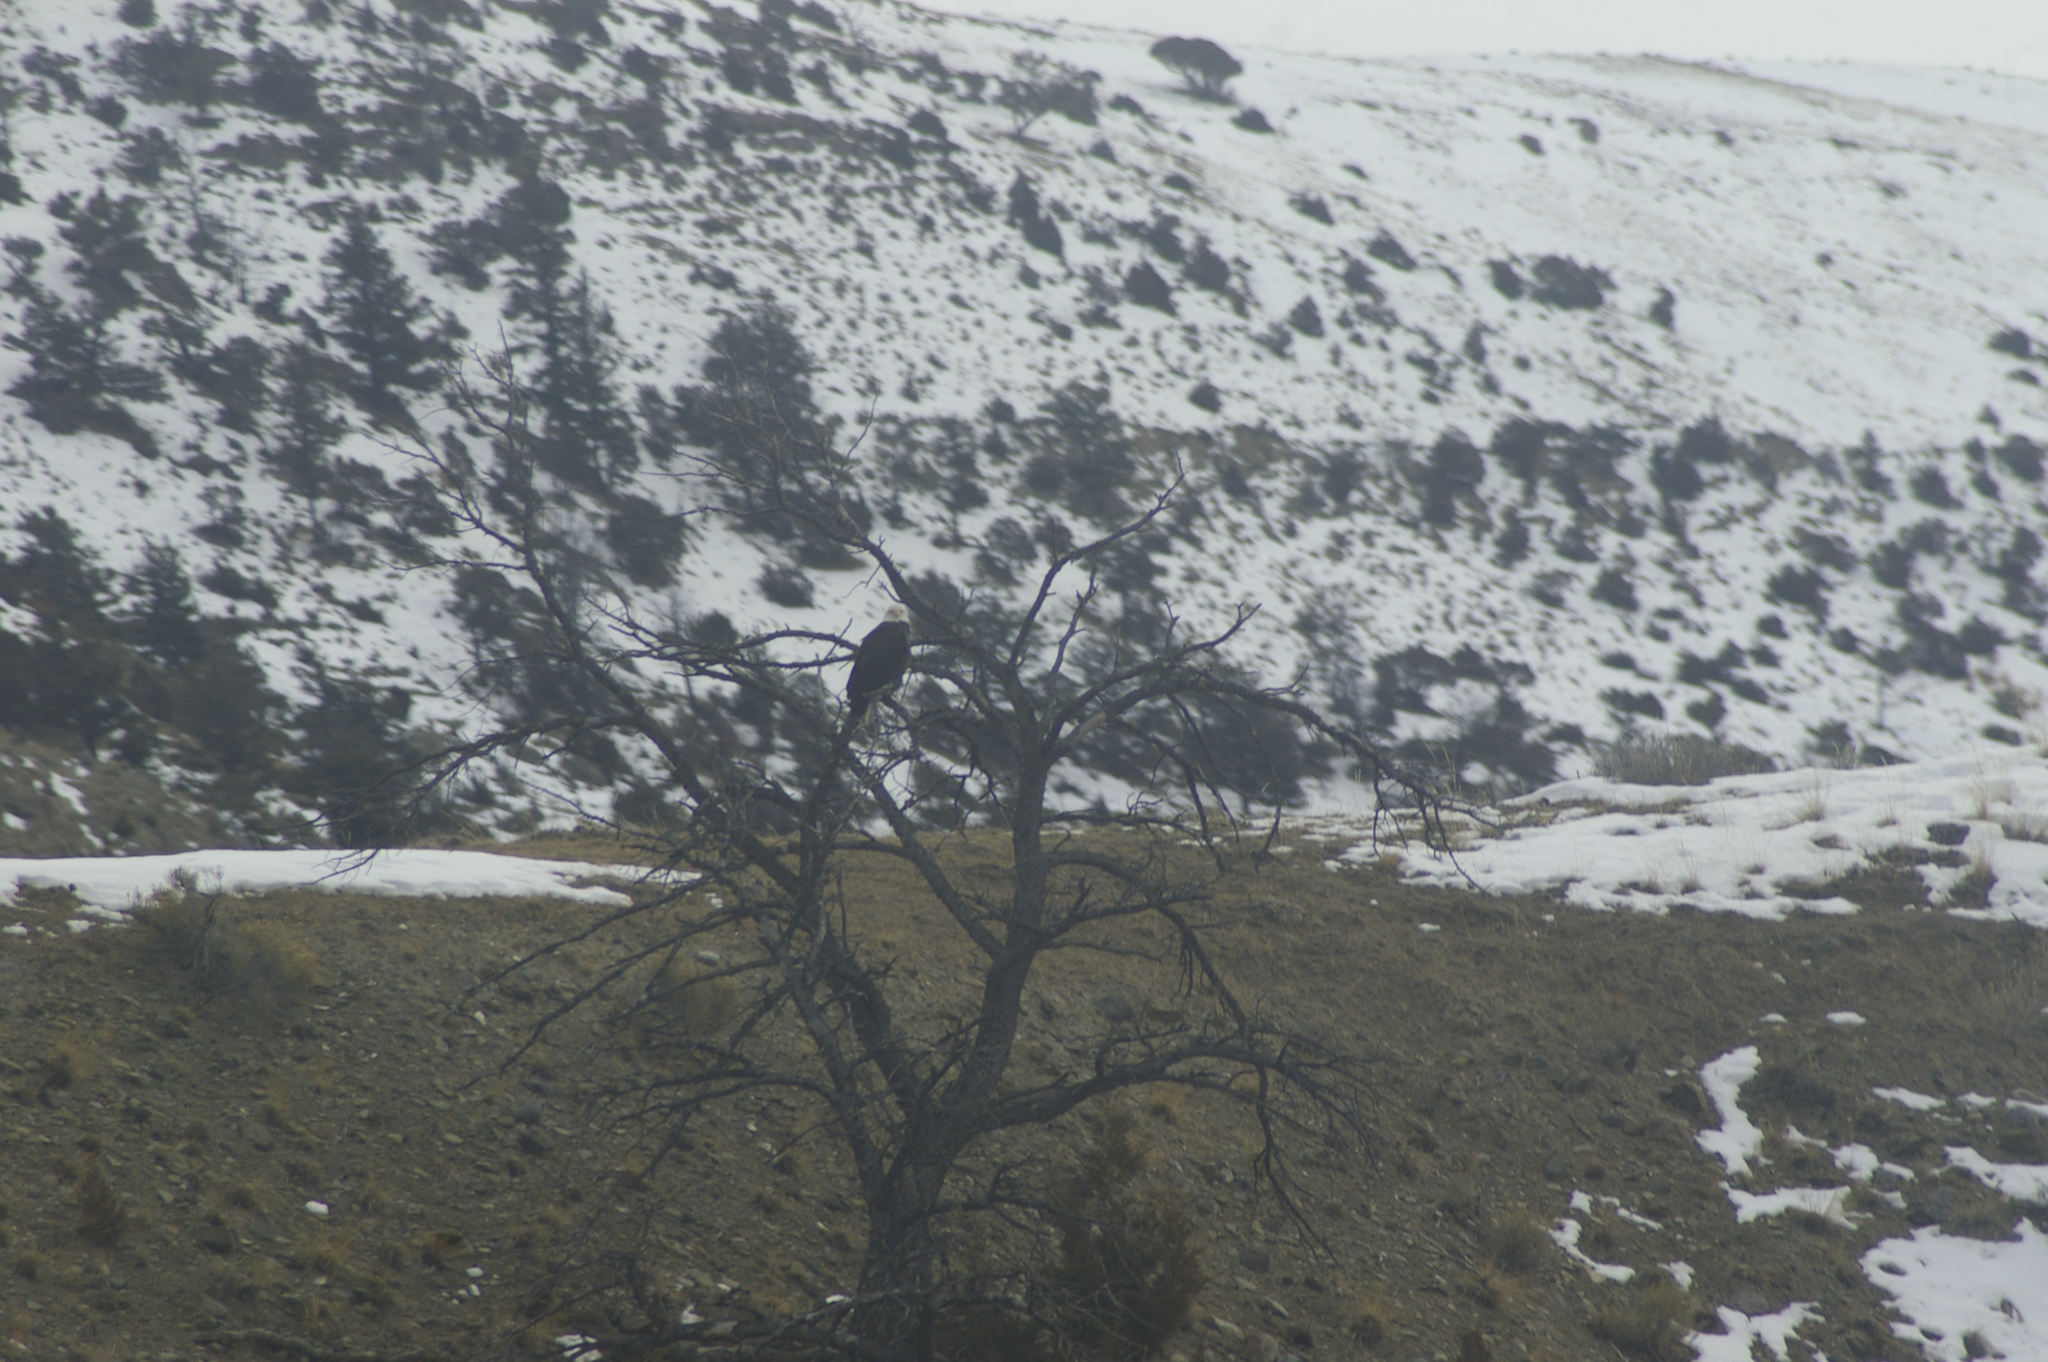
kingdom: Animalia
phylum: Chordata
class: Aves
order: Accipitriformes
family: Accipitridae
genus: Haliaeetus
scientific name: Haliaeetus leucocephalus
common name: Bald eagle
